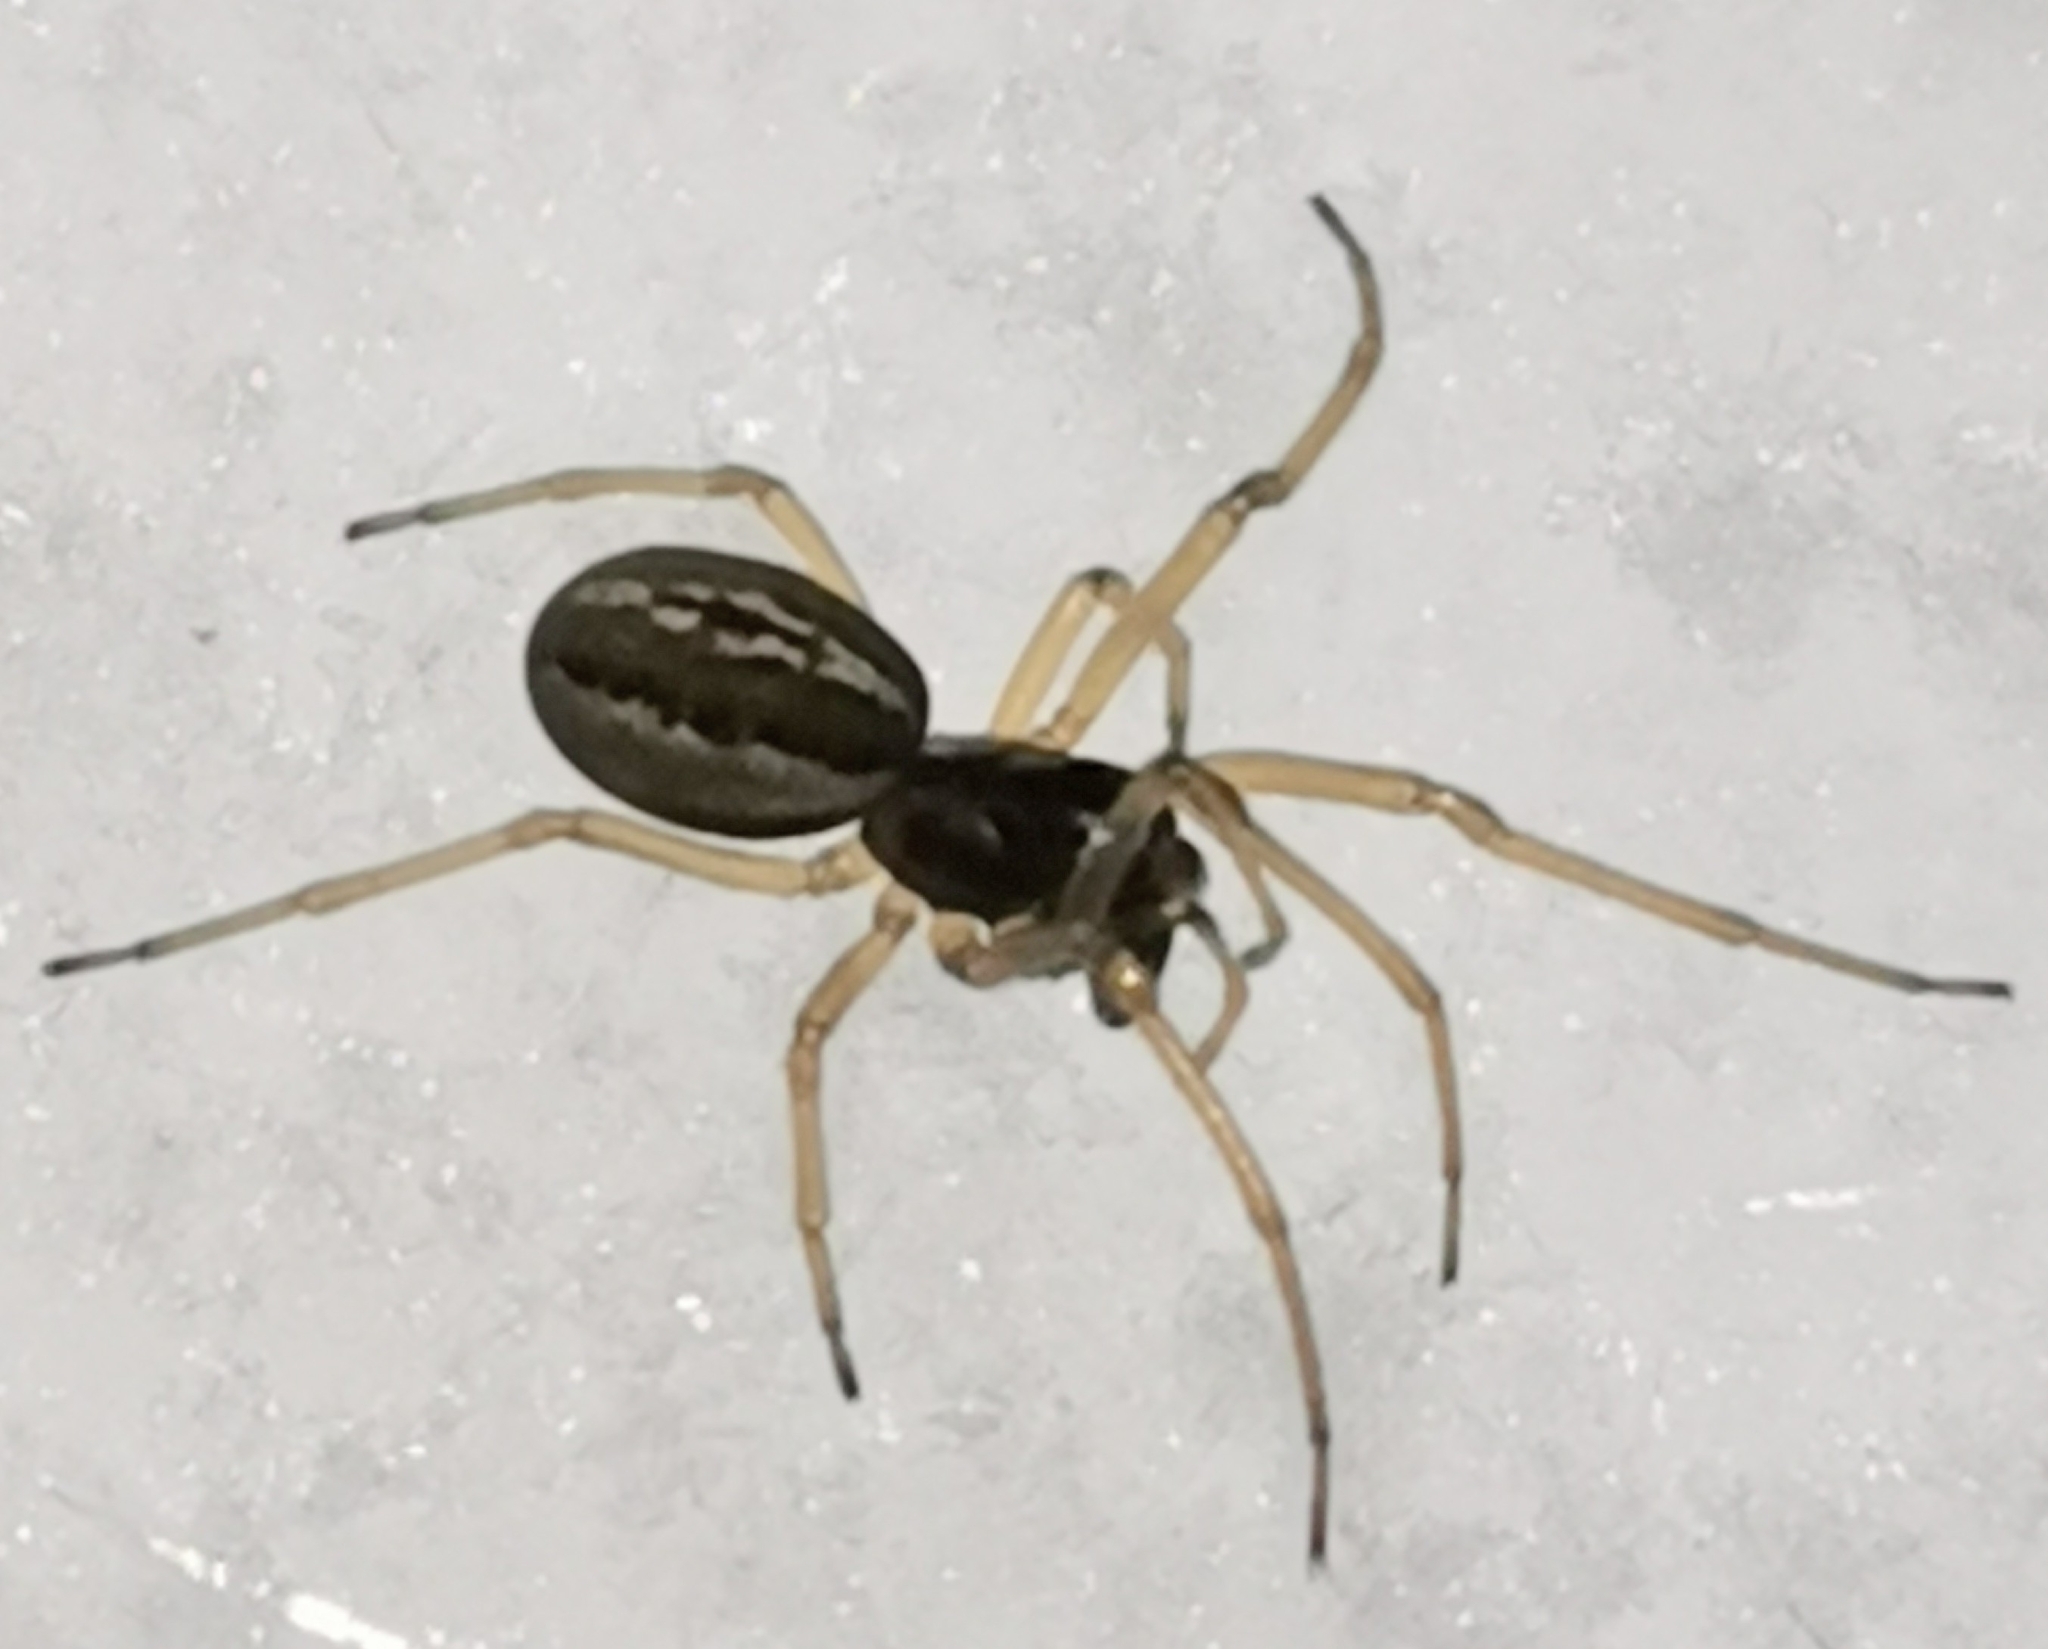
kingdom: Animalia
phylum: Arthropoda
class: Arachnida
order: Araneae
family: Tetragnathidae
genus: Pachygnatha
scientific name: Pachygnatha degeeri
